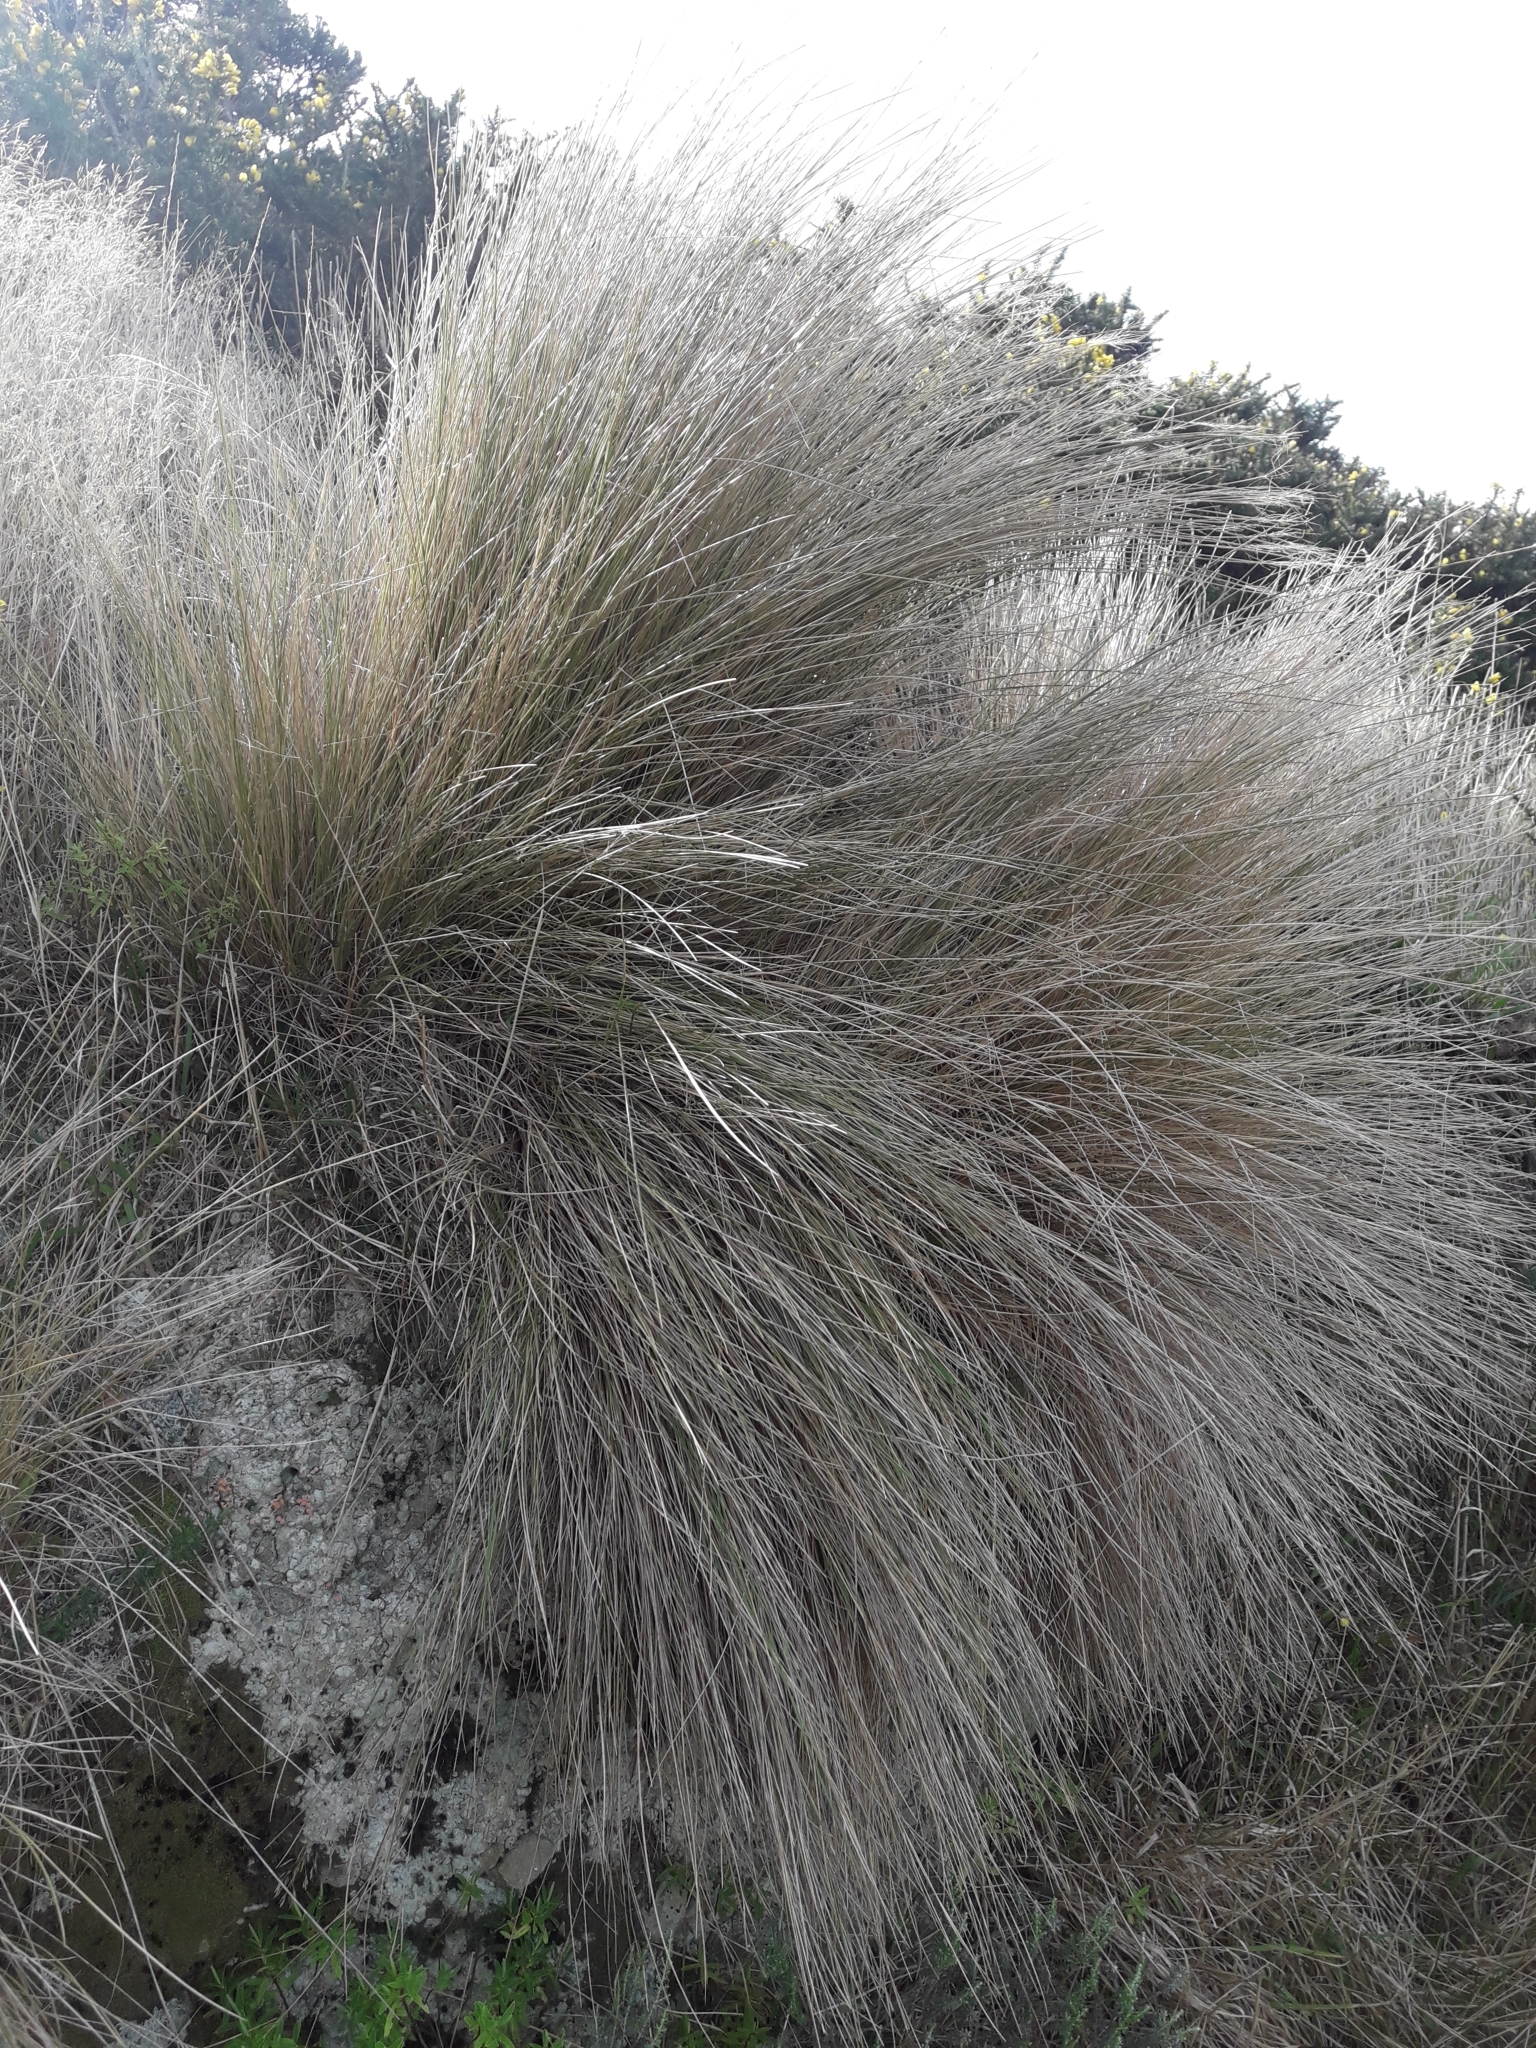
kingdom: Plantae
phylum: Tracheophyta
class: Liliopsida
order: Poales
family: Poaceae
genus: Poa
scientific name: Poa cita
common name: Silver tussock
